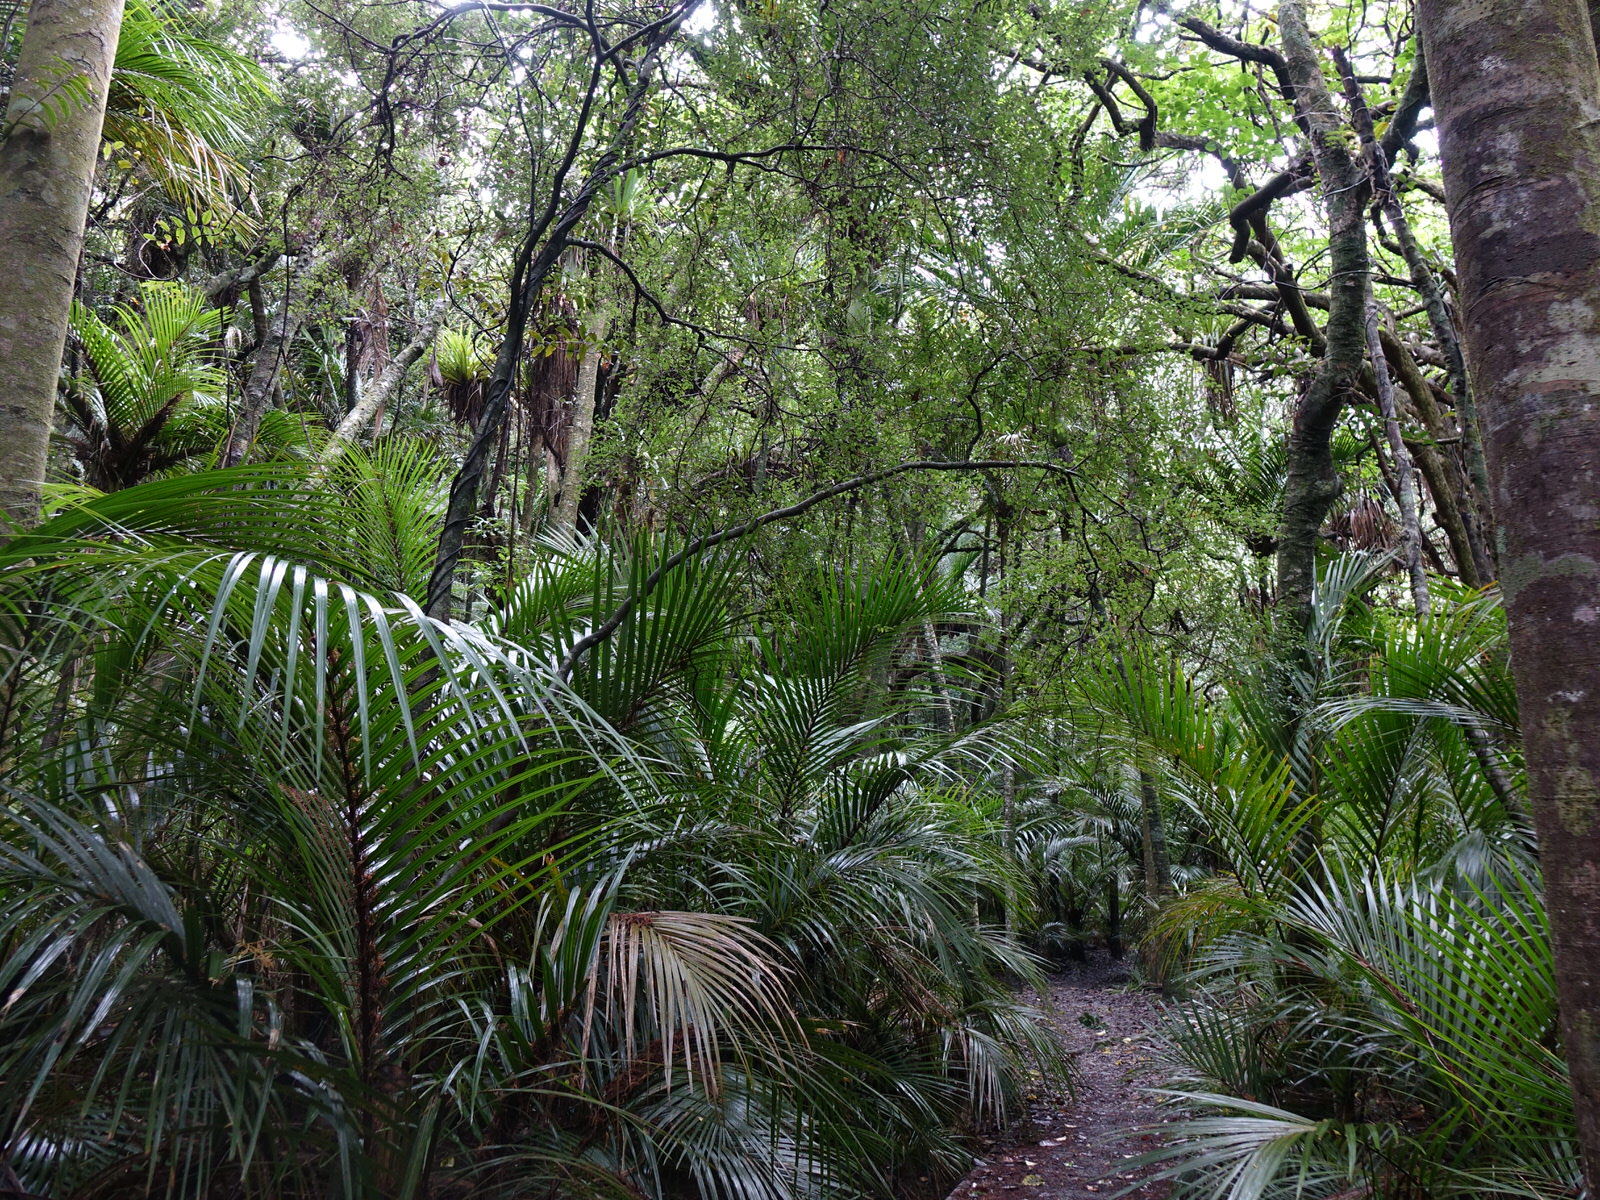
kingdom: Plantae
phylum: Tracheophyta
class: Magnoliopsida
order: Rosales
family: Moraceae
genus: Paratrophis
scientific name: Paratrophis microphylla
